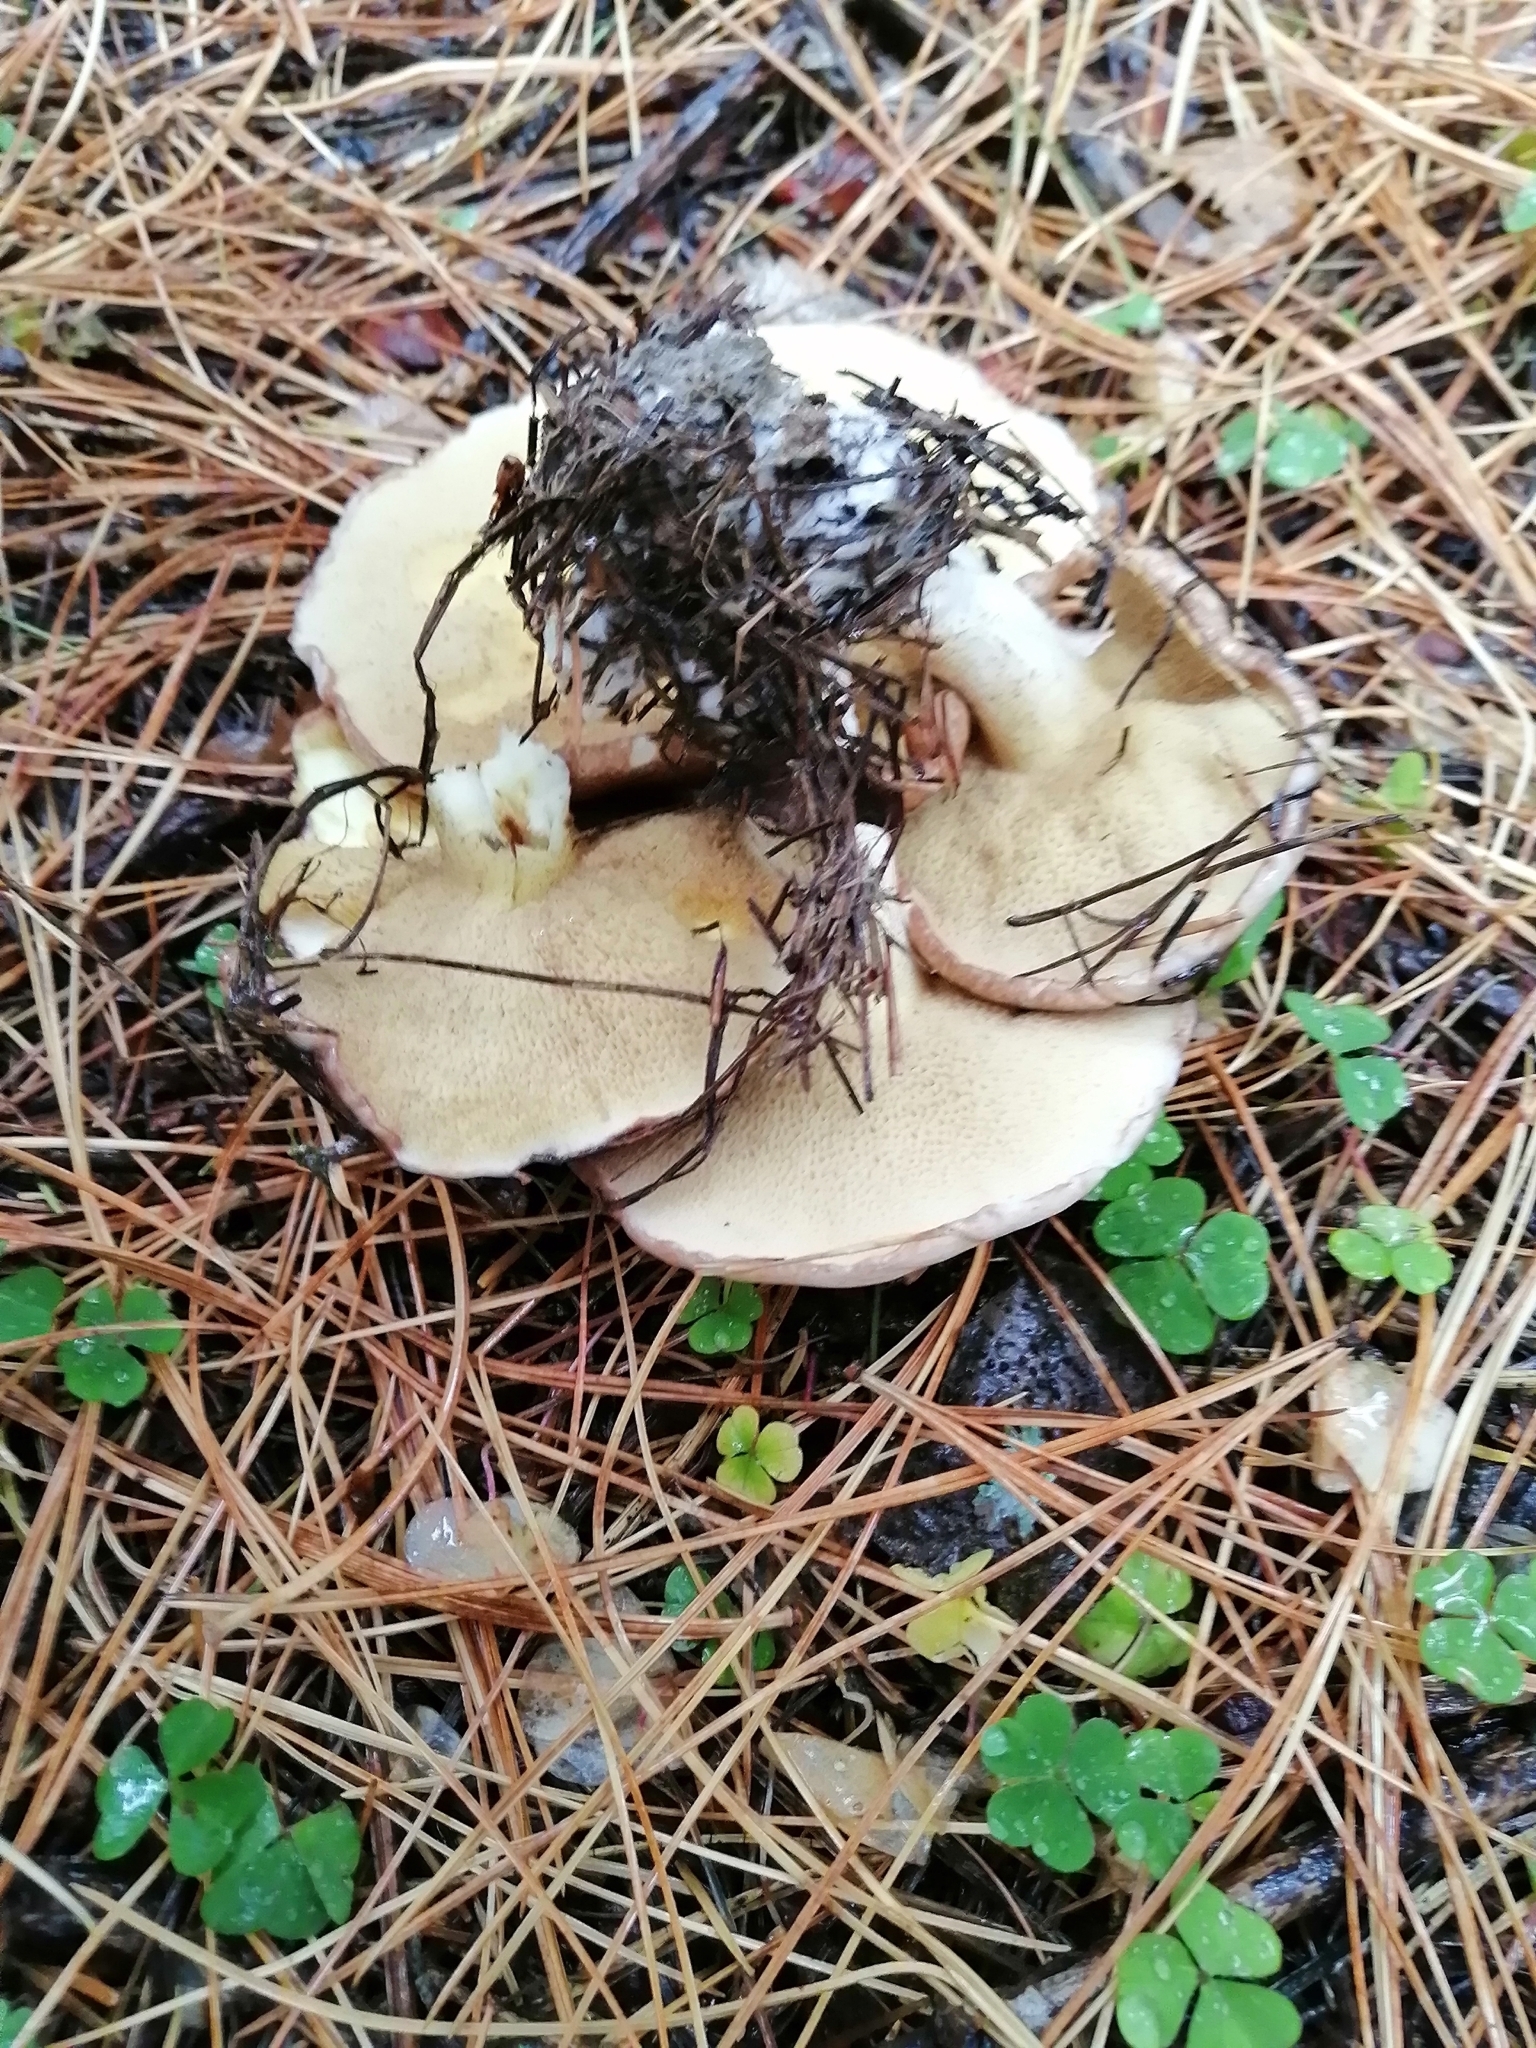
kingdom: Fungi
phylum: Basidiomycota
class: Agaricomycetes
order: Boletales
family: Suillaceae
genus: Suillus
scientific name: Suillus placidus
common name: Slippery white bolete
